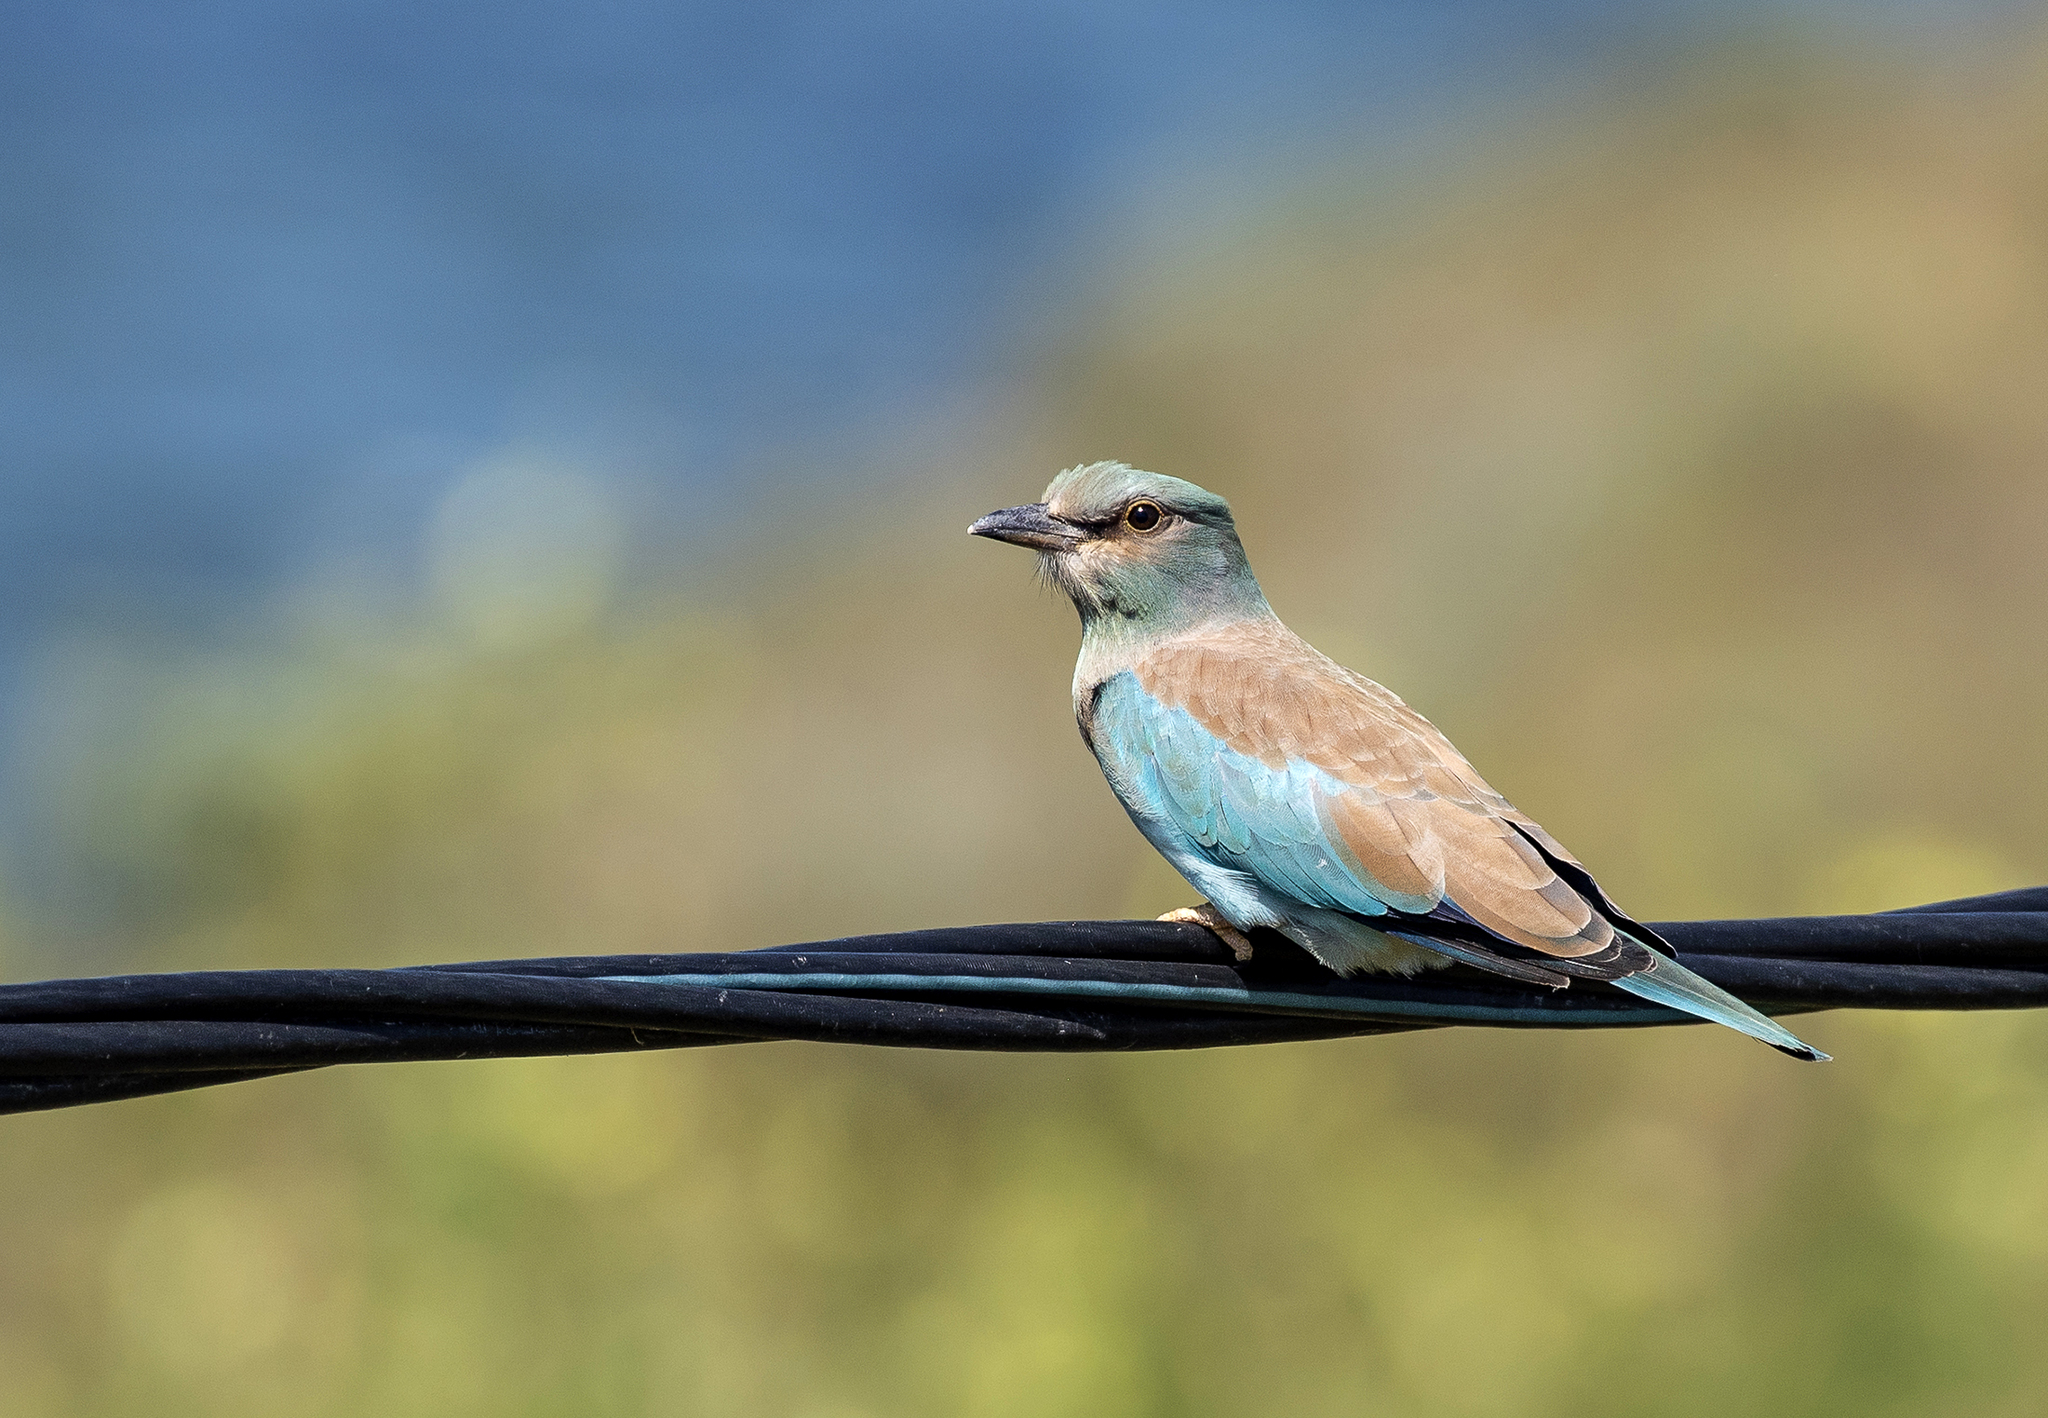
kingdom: Animalia
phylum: Chordata
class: Aves
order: Coraciiformes
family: Coraciidae
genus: Coracias
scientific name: Coracias garrulus
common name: European roller
